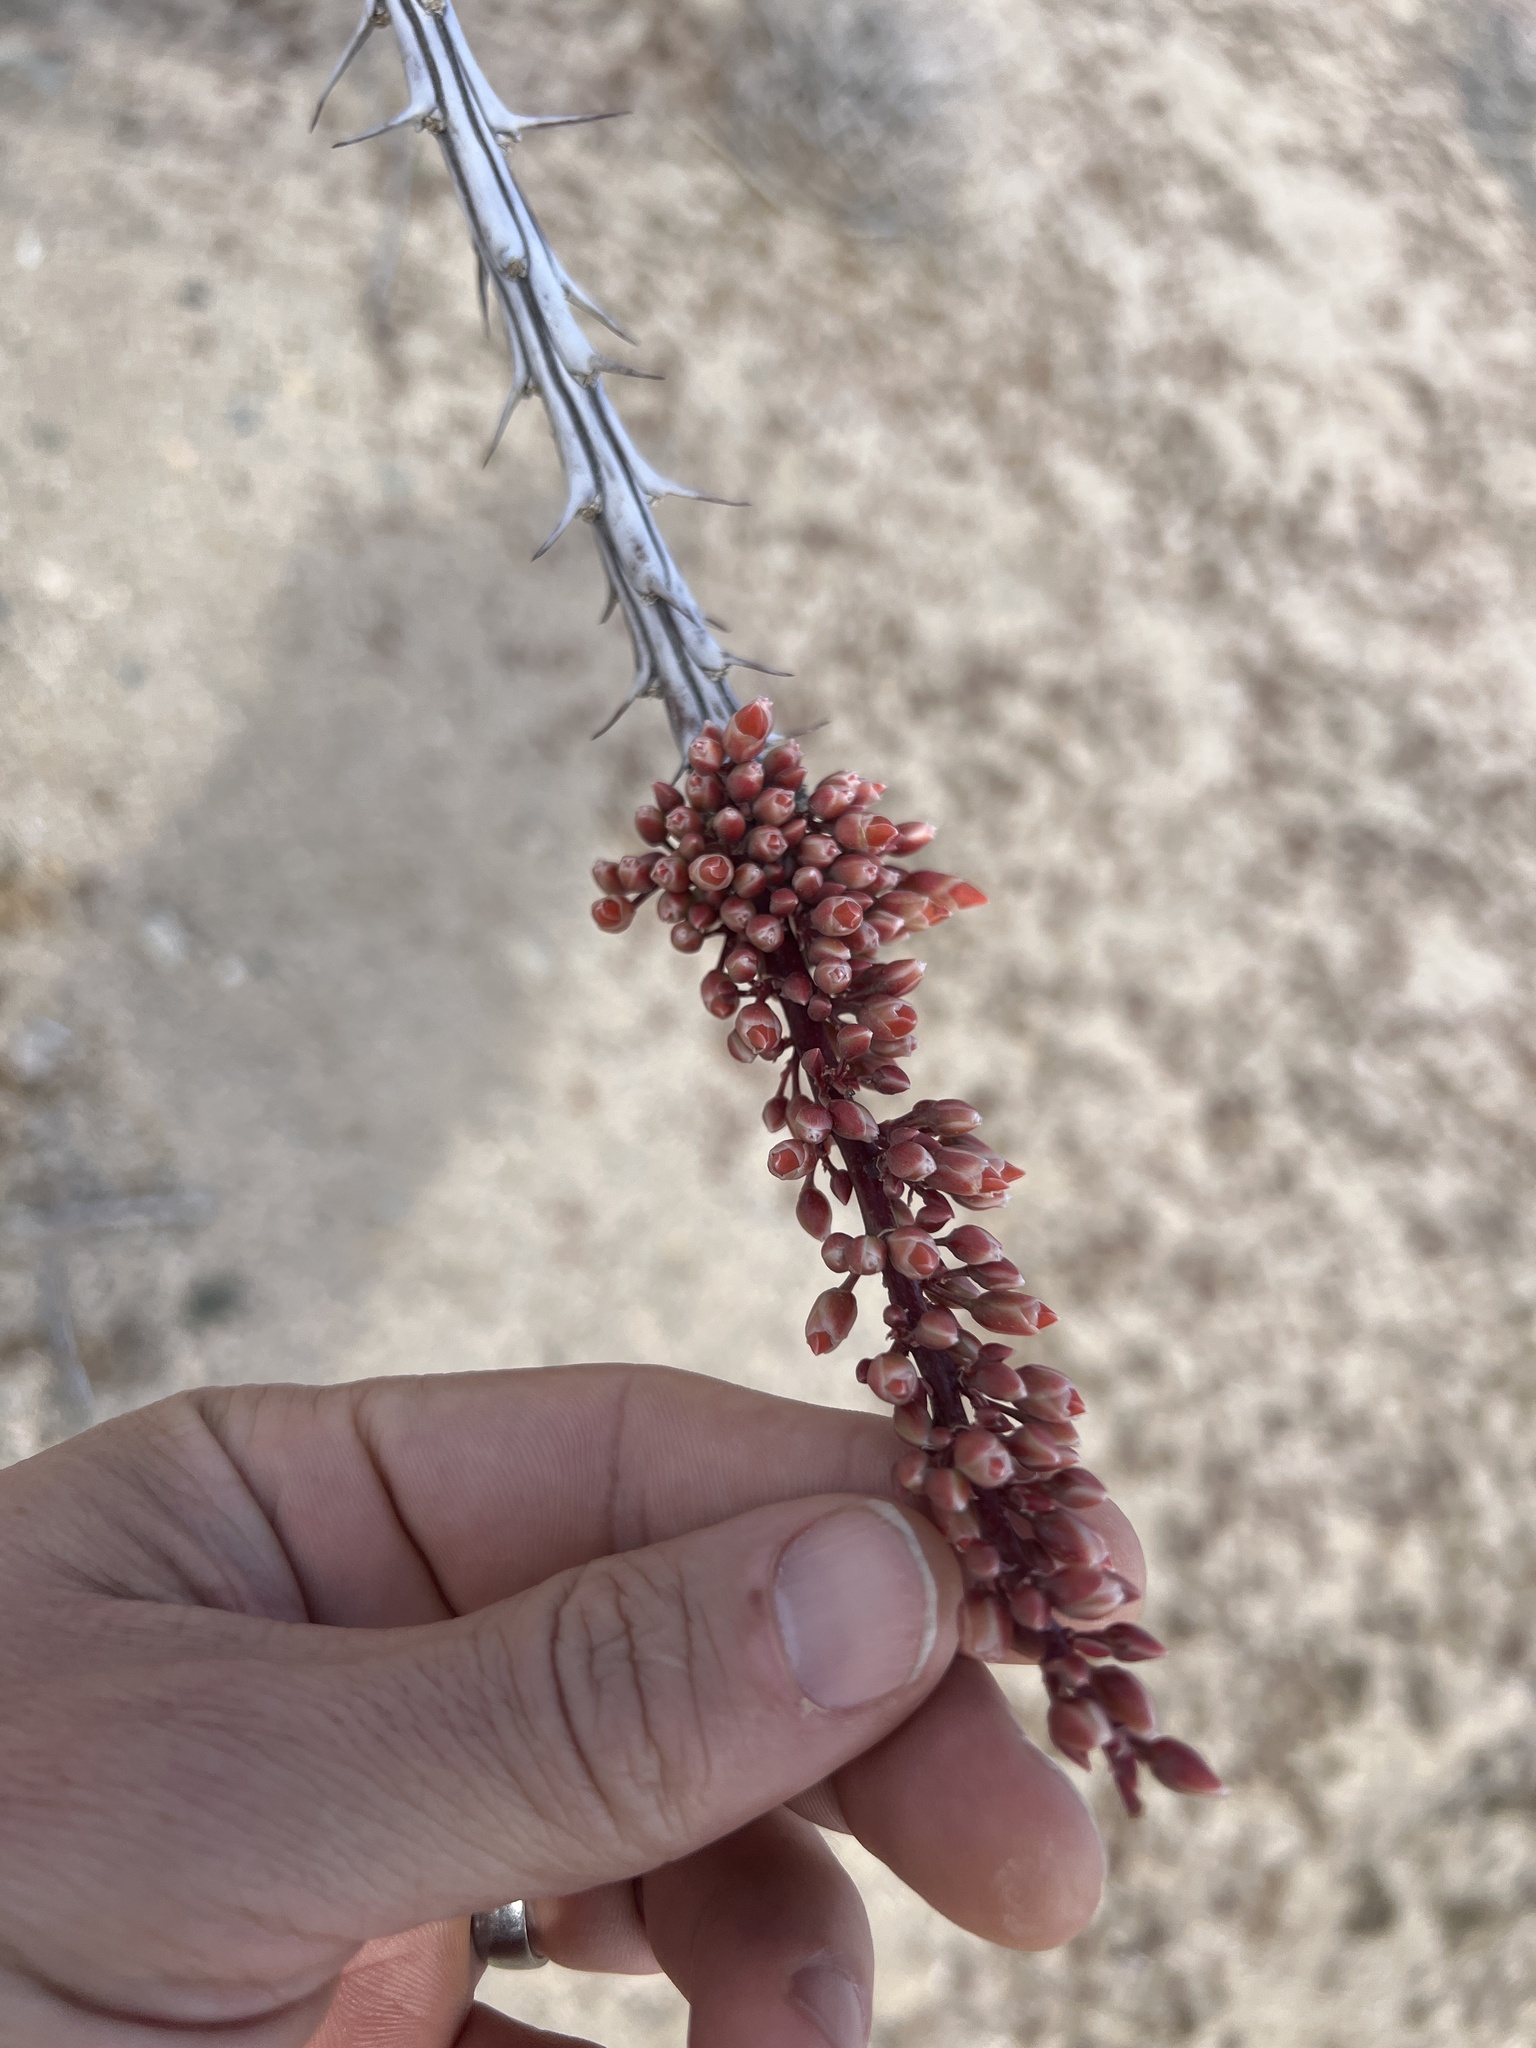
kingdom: Plantae
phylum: Tracheophyta
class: Magnoliopsida
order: Ericales
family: Fouquieriaceae
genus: Fouquieria
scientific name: Fouquieria splendens
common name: Vine-cactus
